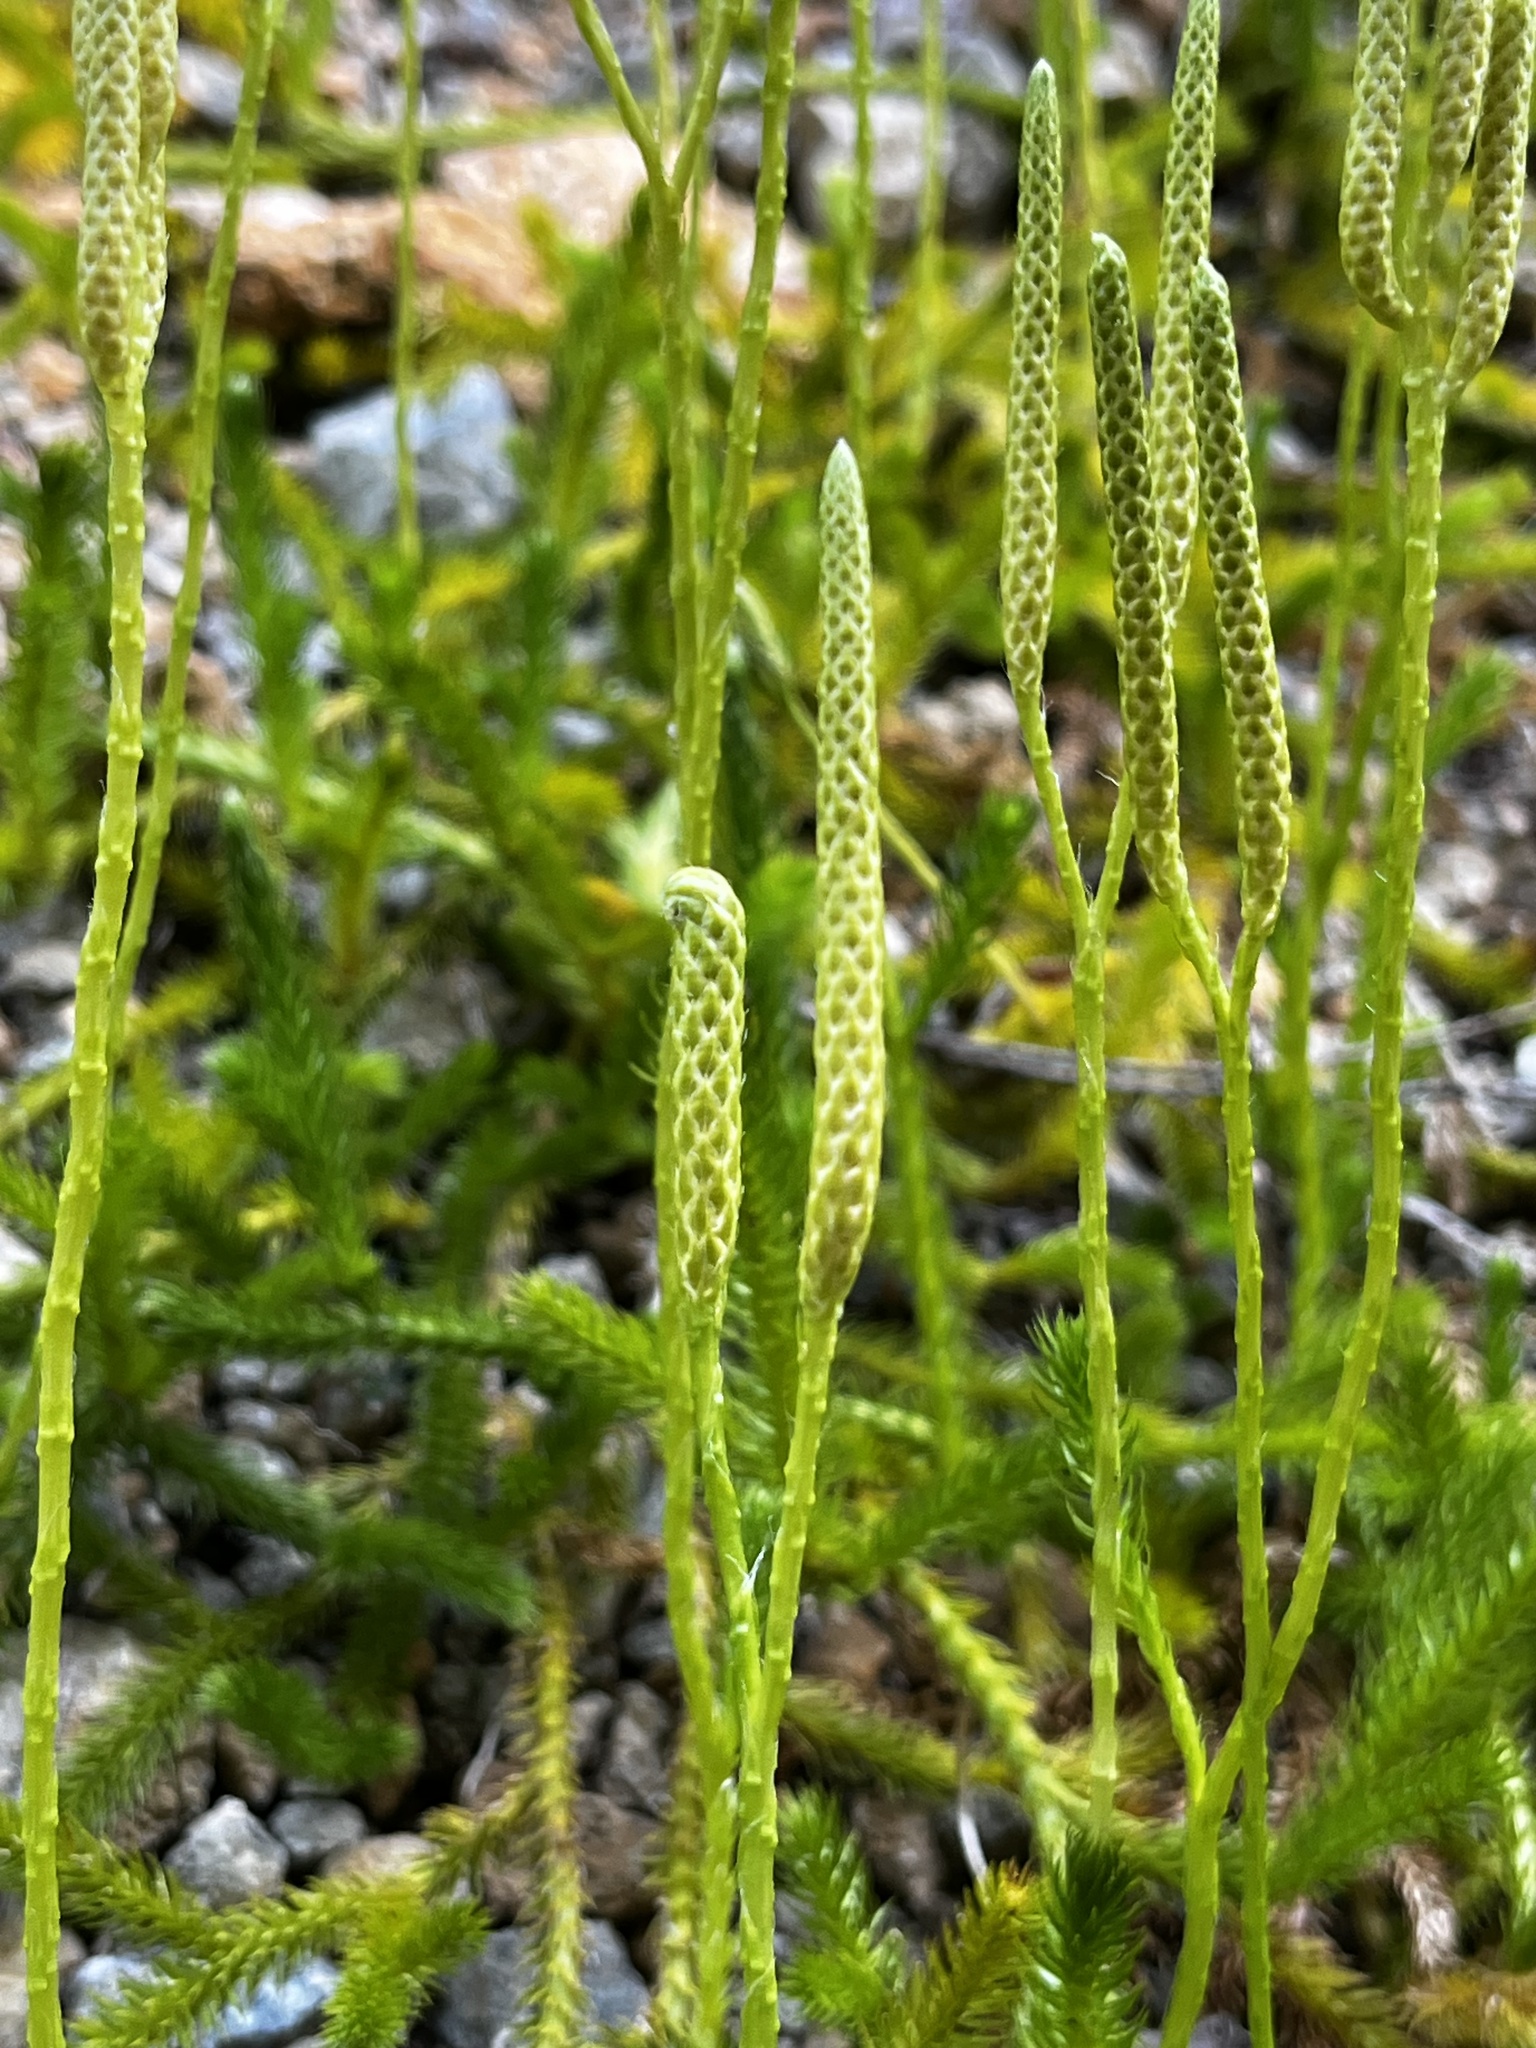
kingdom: Plantae
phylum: Tracheophyta
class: Lycopodiopsida
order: Lycopodiales
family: Lycopodiaceae
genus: Lycopodium
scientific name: Lycopodium clavatum
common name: Stag's-horn clubmoss
